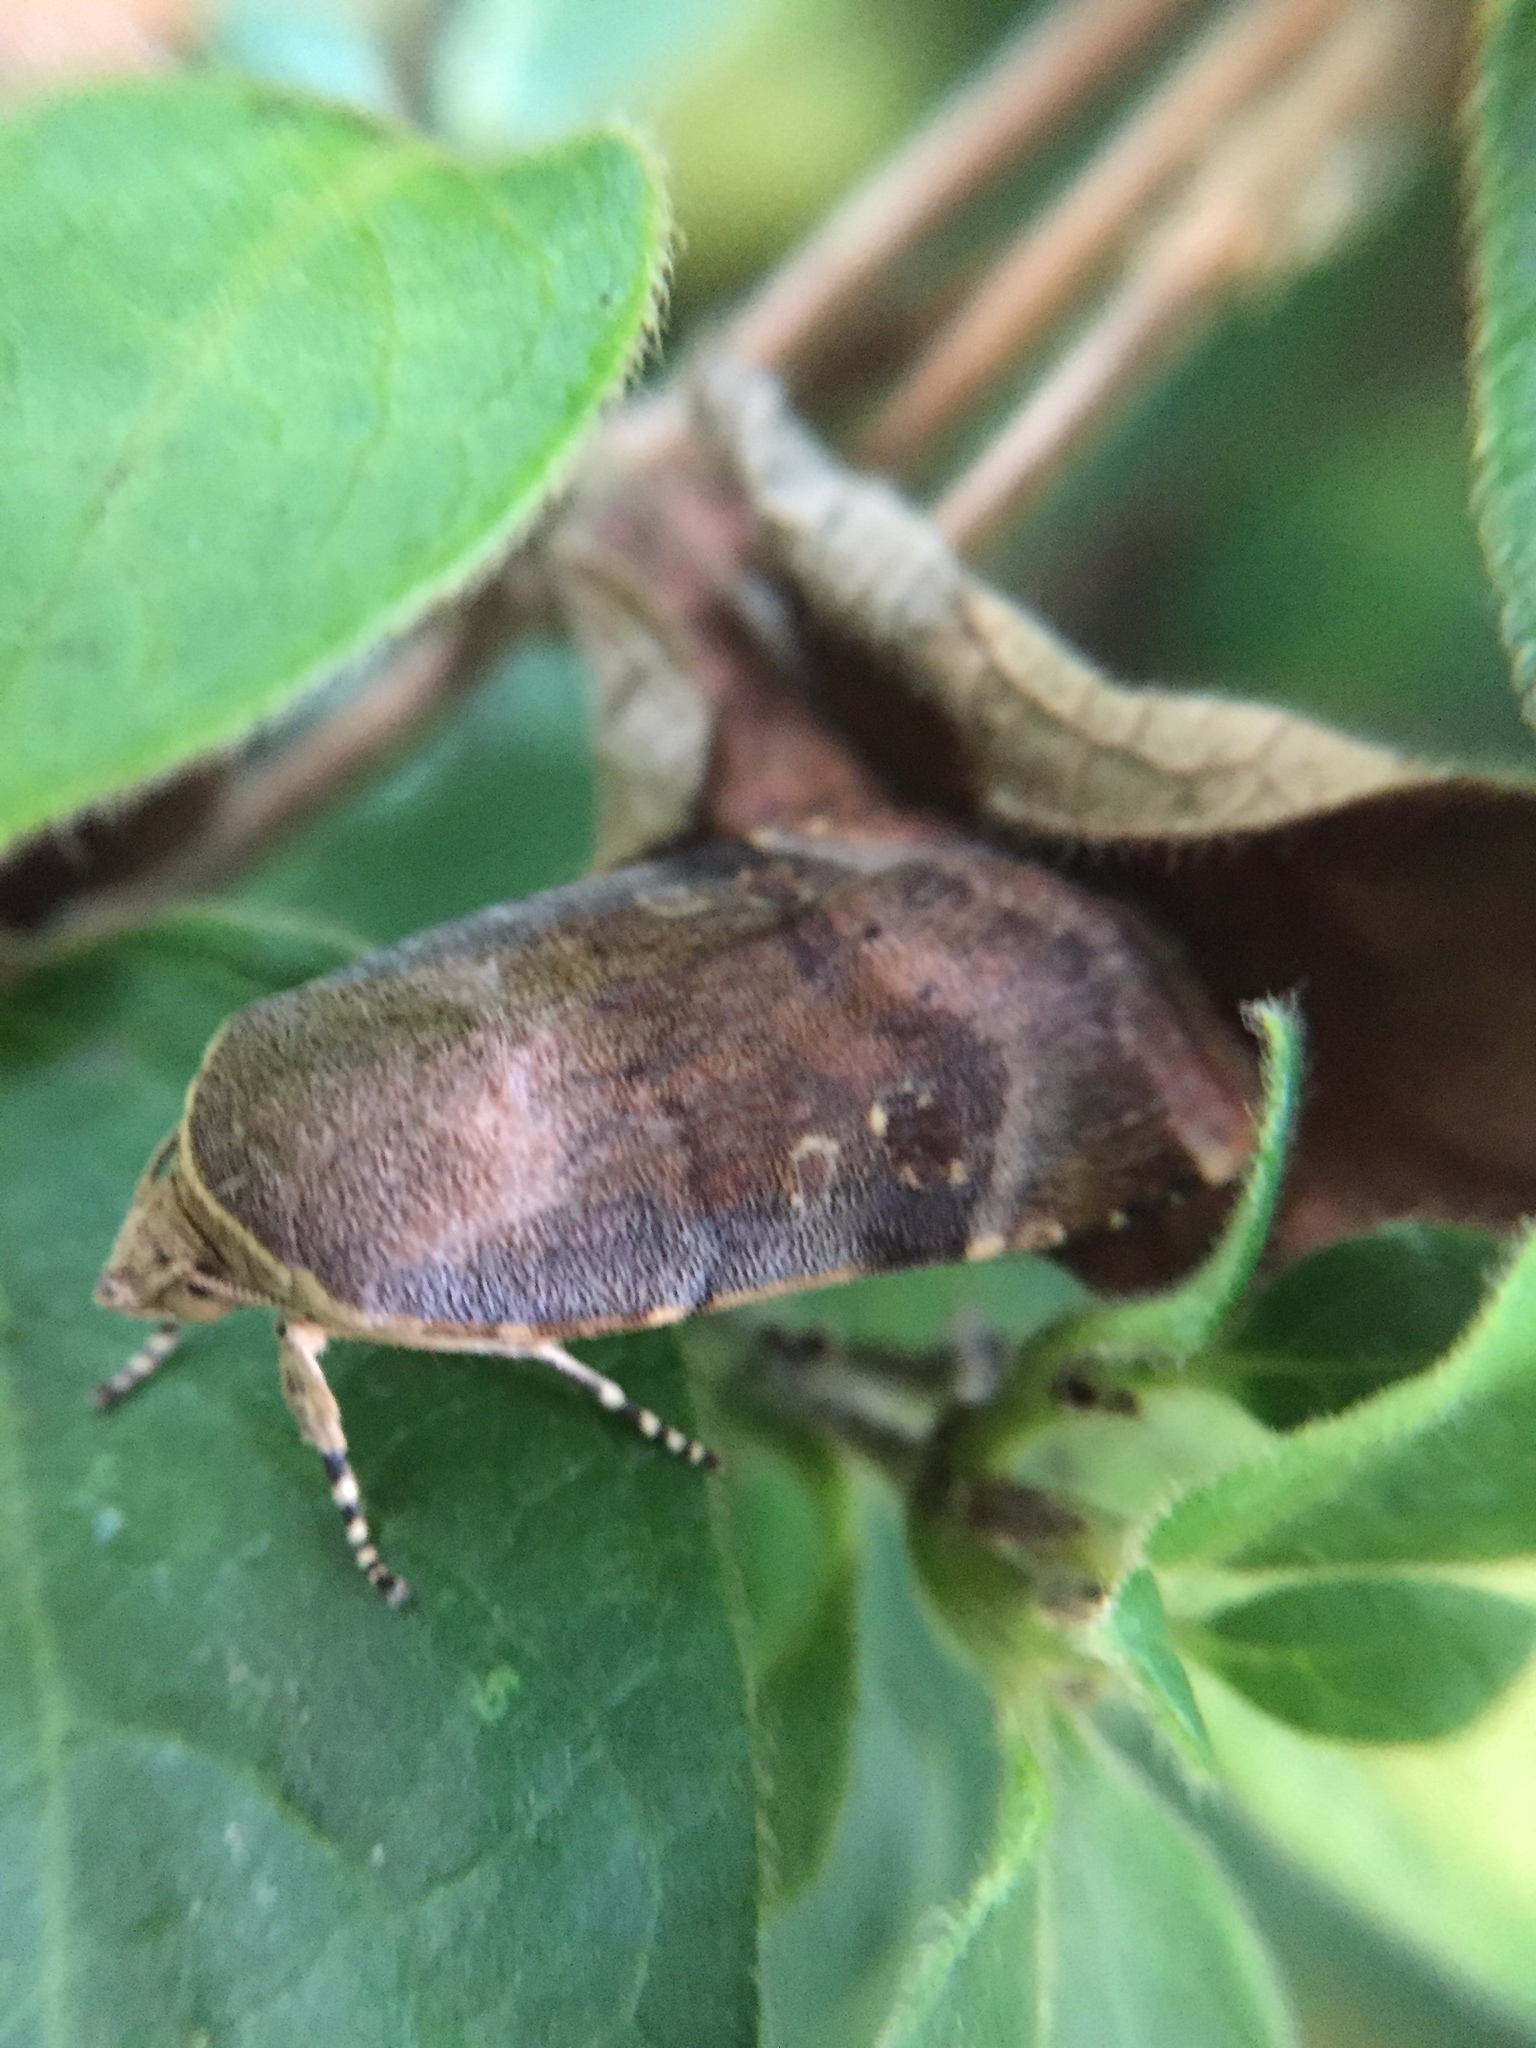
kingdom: Animalia
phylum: Arthropoda
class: Insecta
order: Lepidoptera
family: Noctuidae
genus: Noctua
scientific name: Noctua
